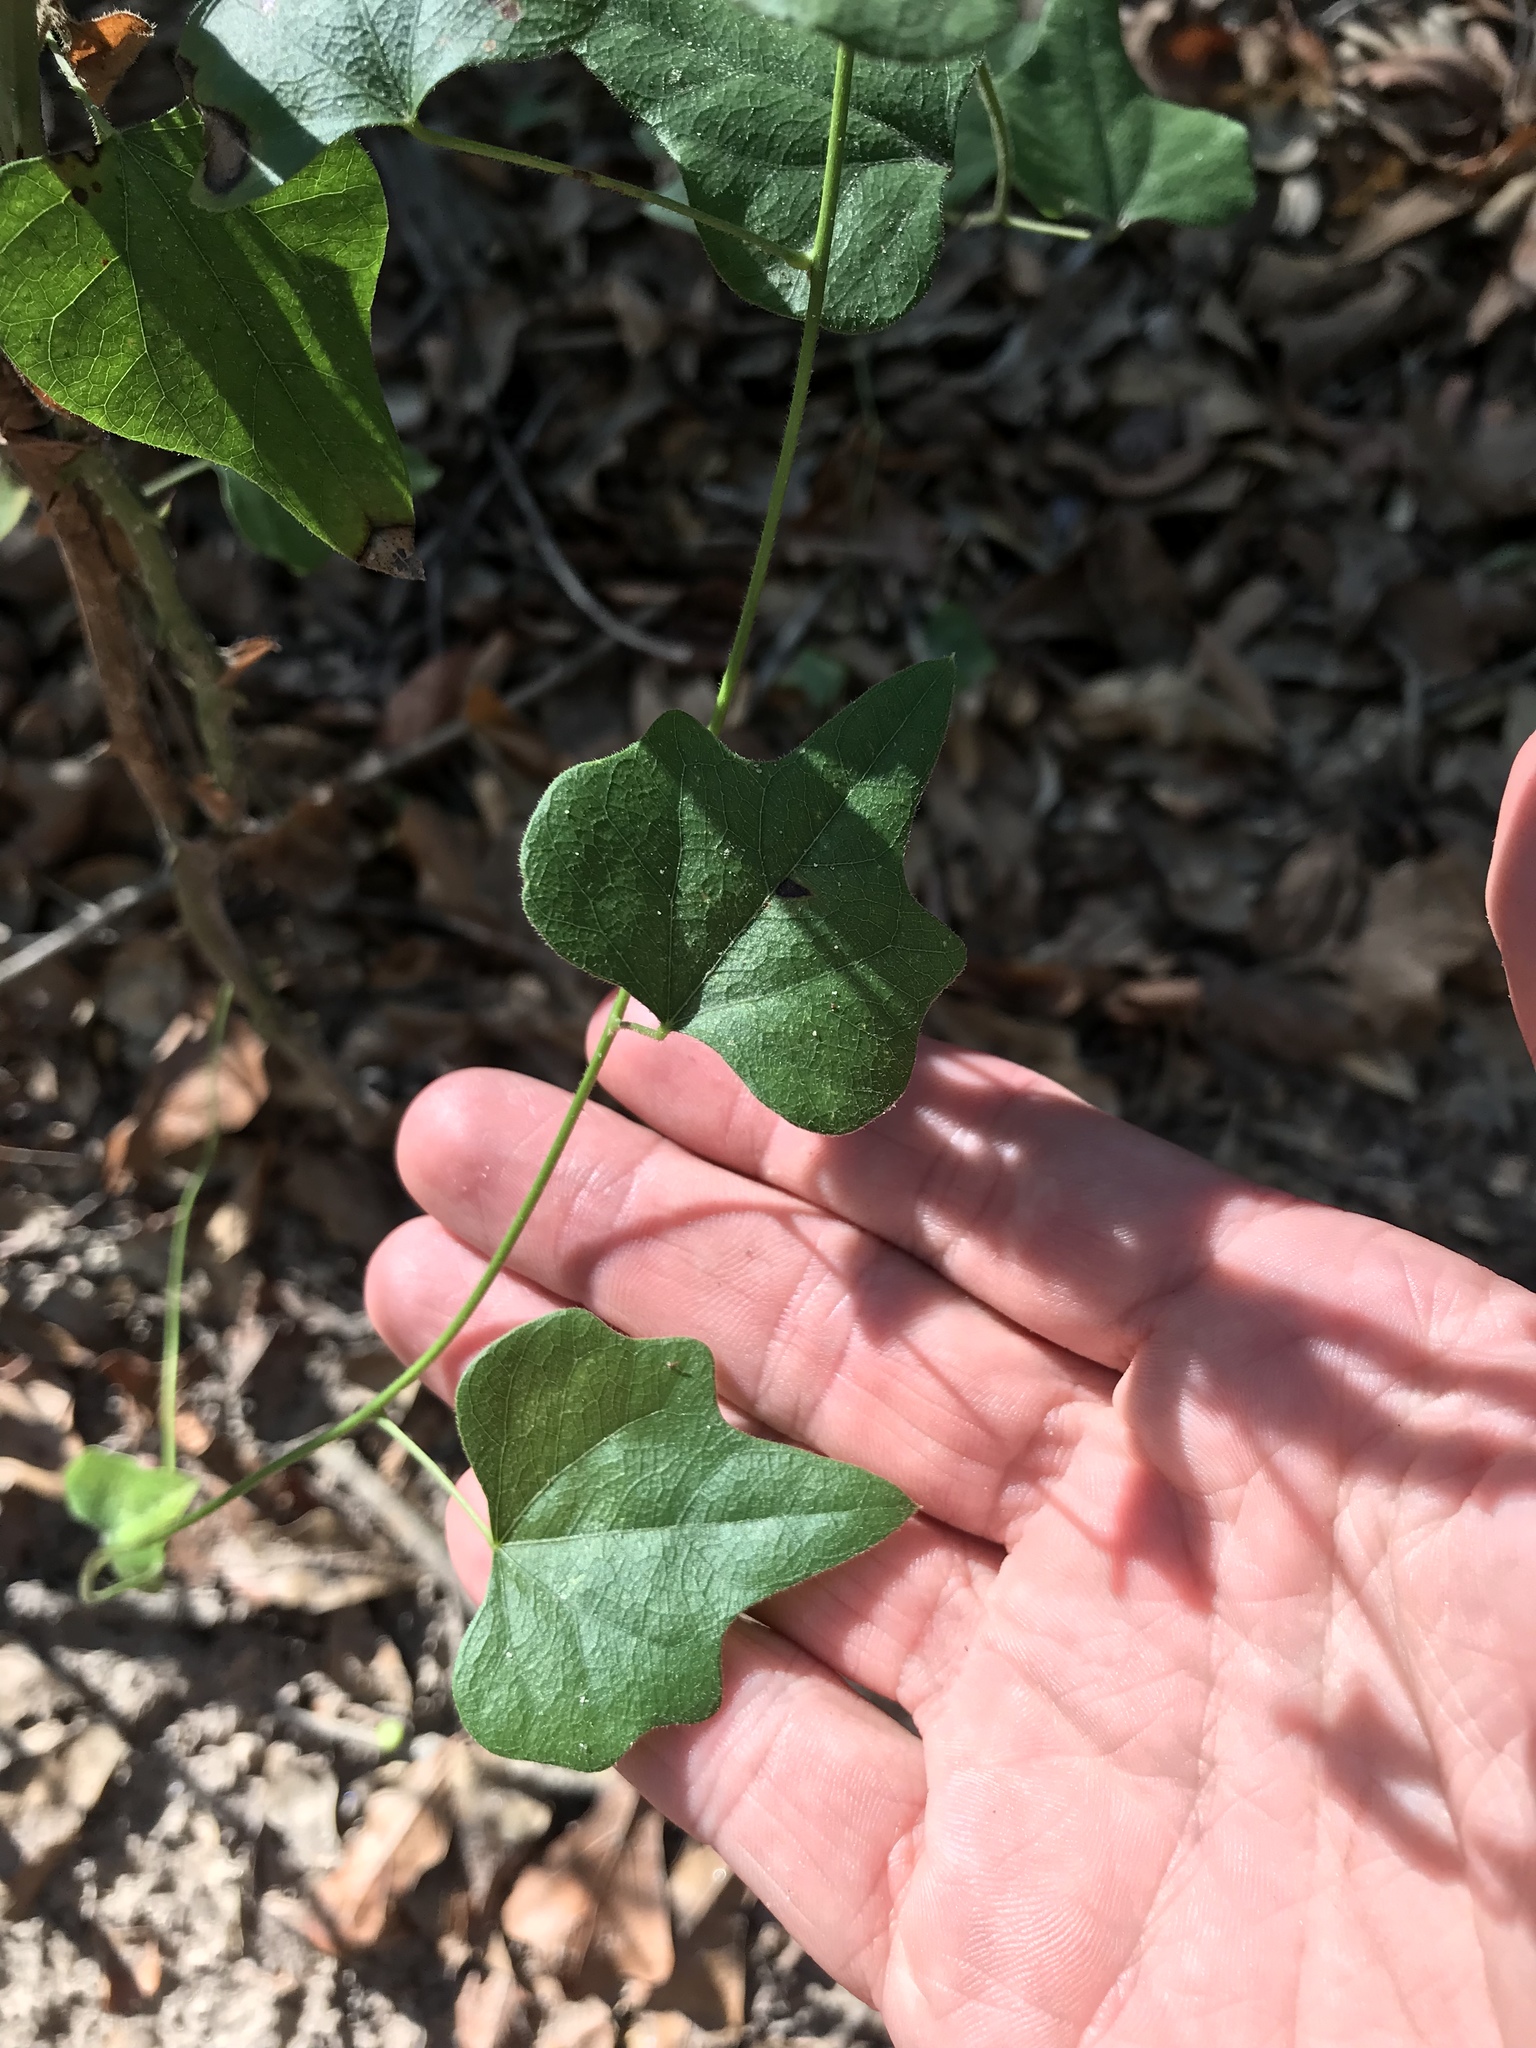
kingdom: Plantae
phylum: Tracheophyta
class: Magnoliopsida
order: Ranunculales
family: Menispermaceae
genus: Cocculus
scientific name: Cocculus carolinus
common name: Carolina moonseed
